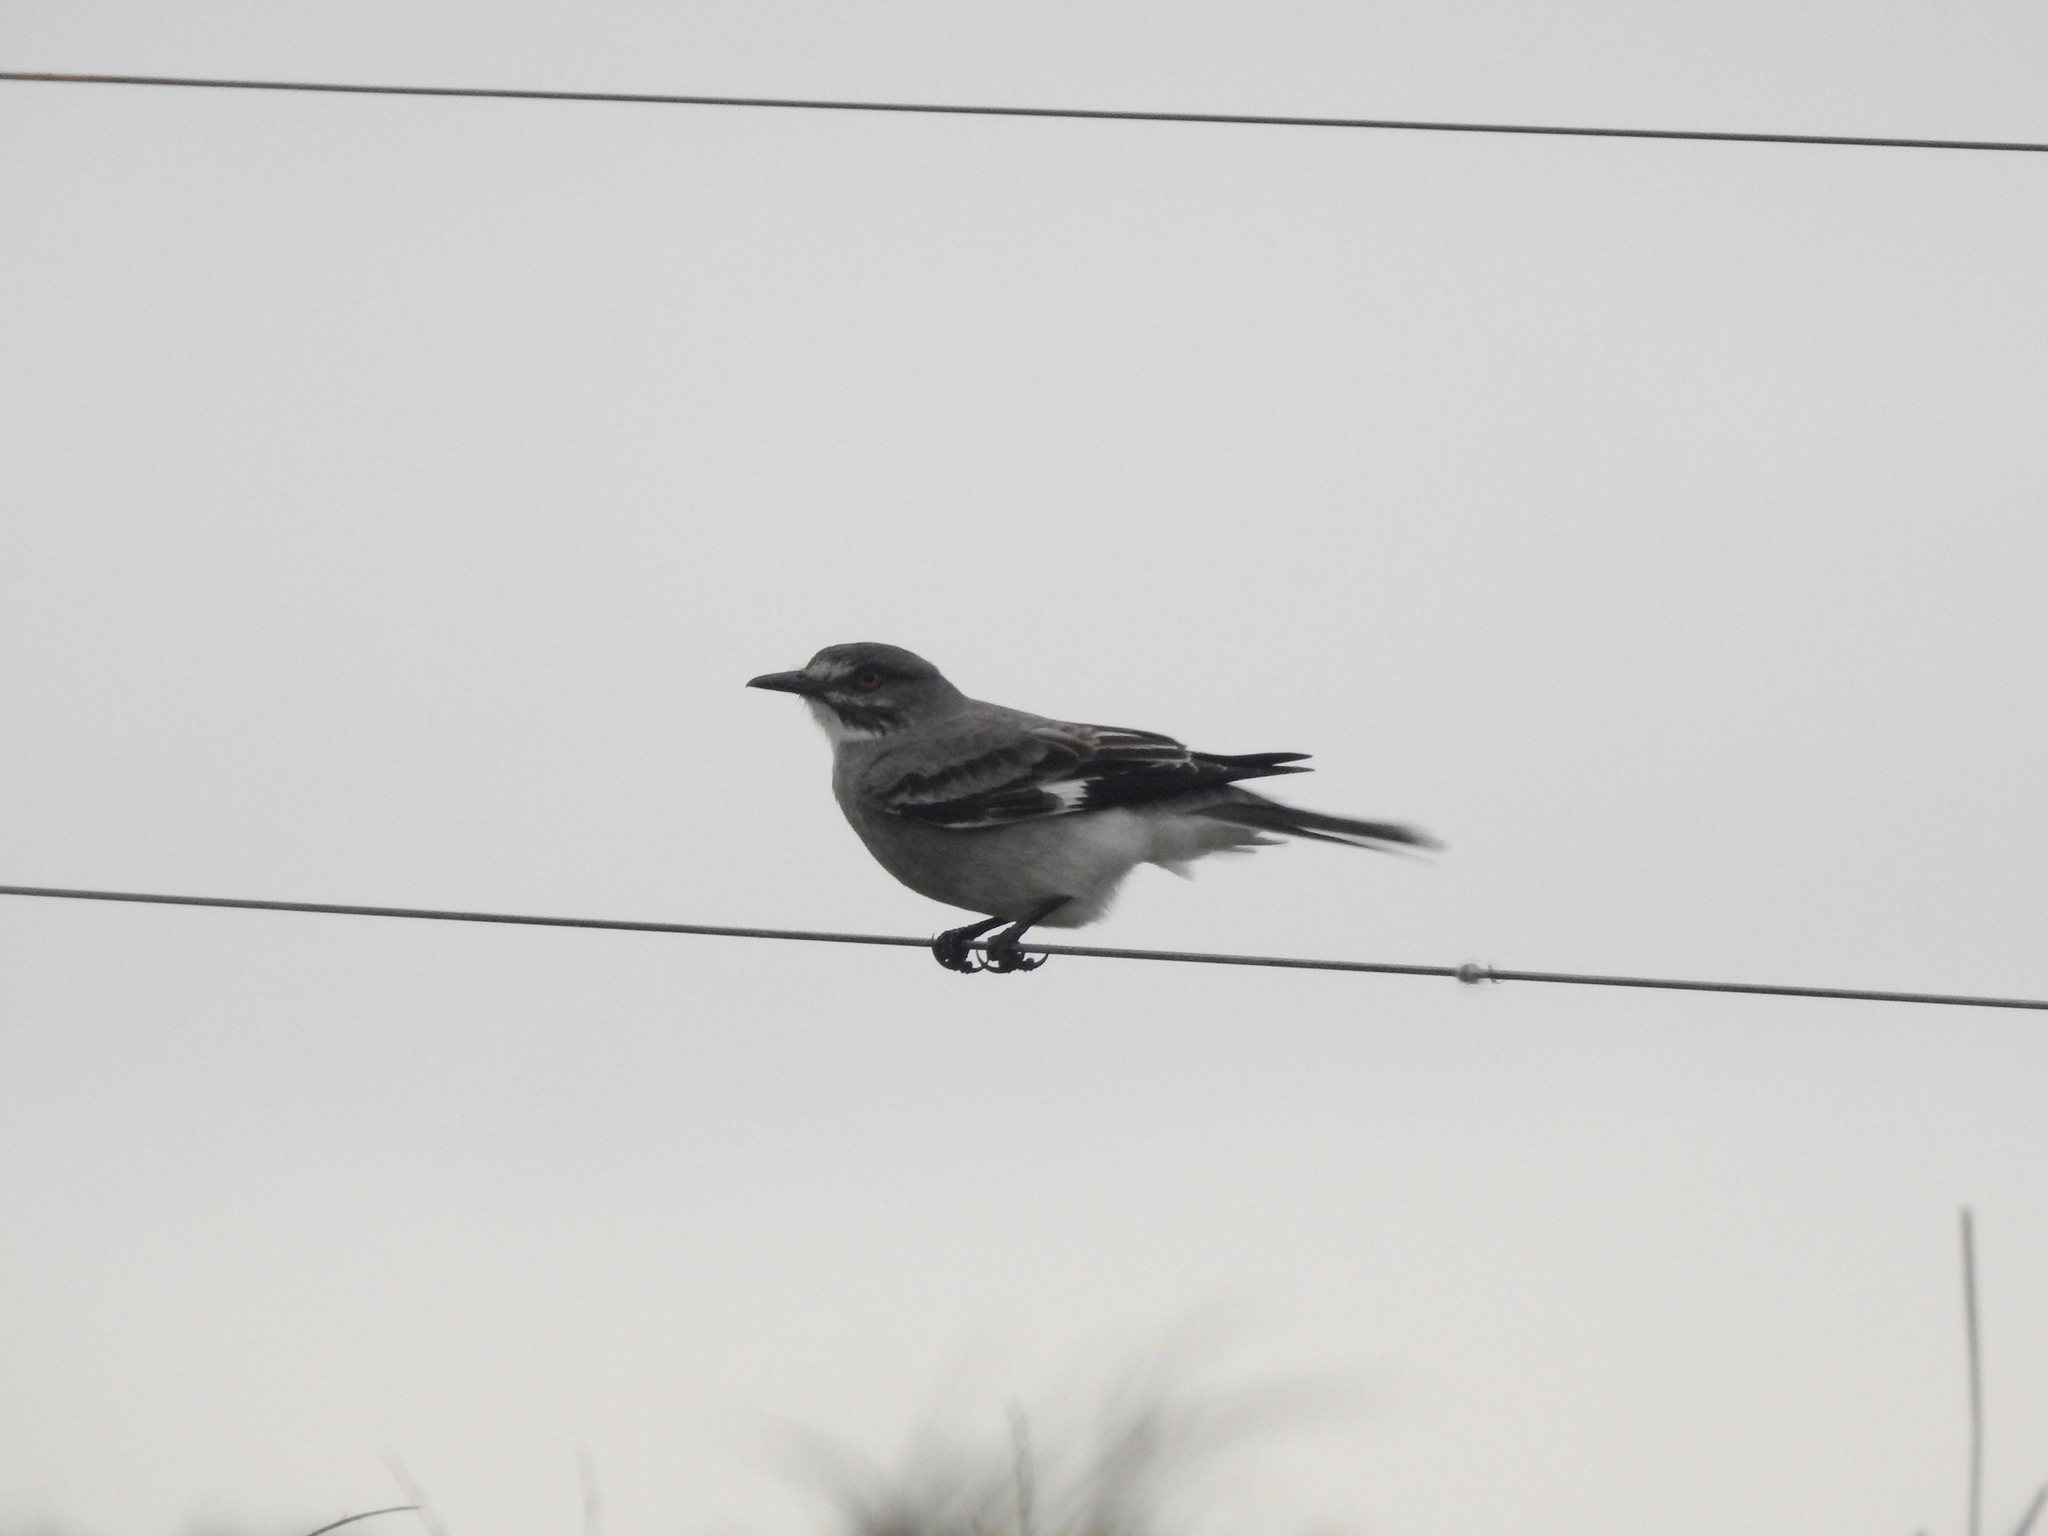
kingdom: Animalia
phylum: Chordata
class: Aves
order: Passeriformes
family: Tyrannidae
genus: Xolmis
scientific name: Xolmis cinereus
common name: Grey monjita
